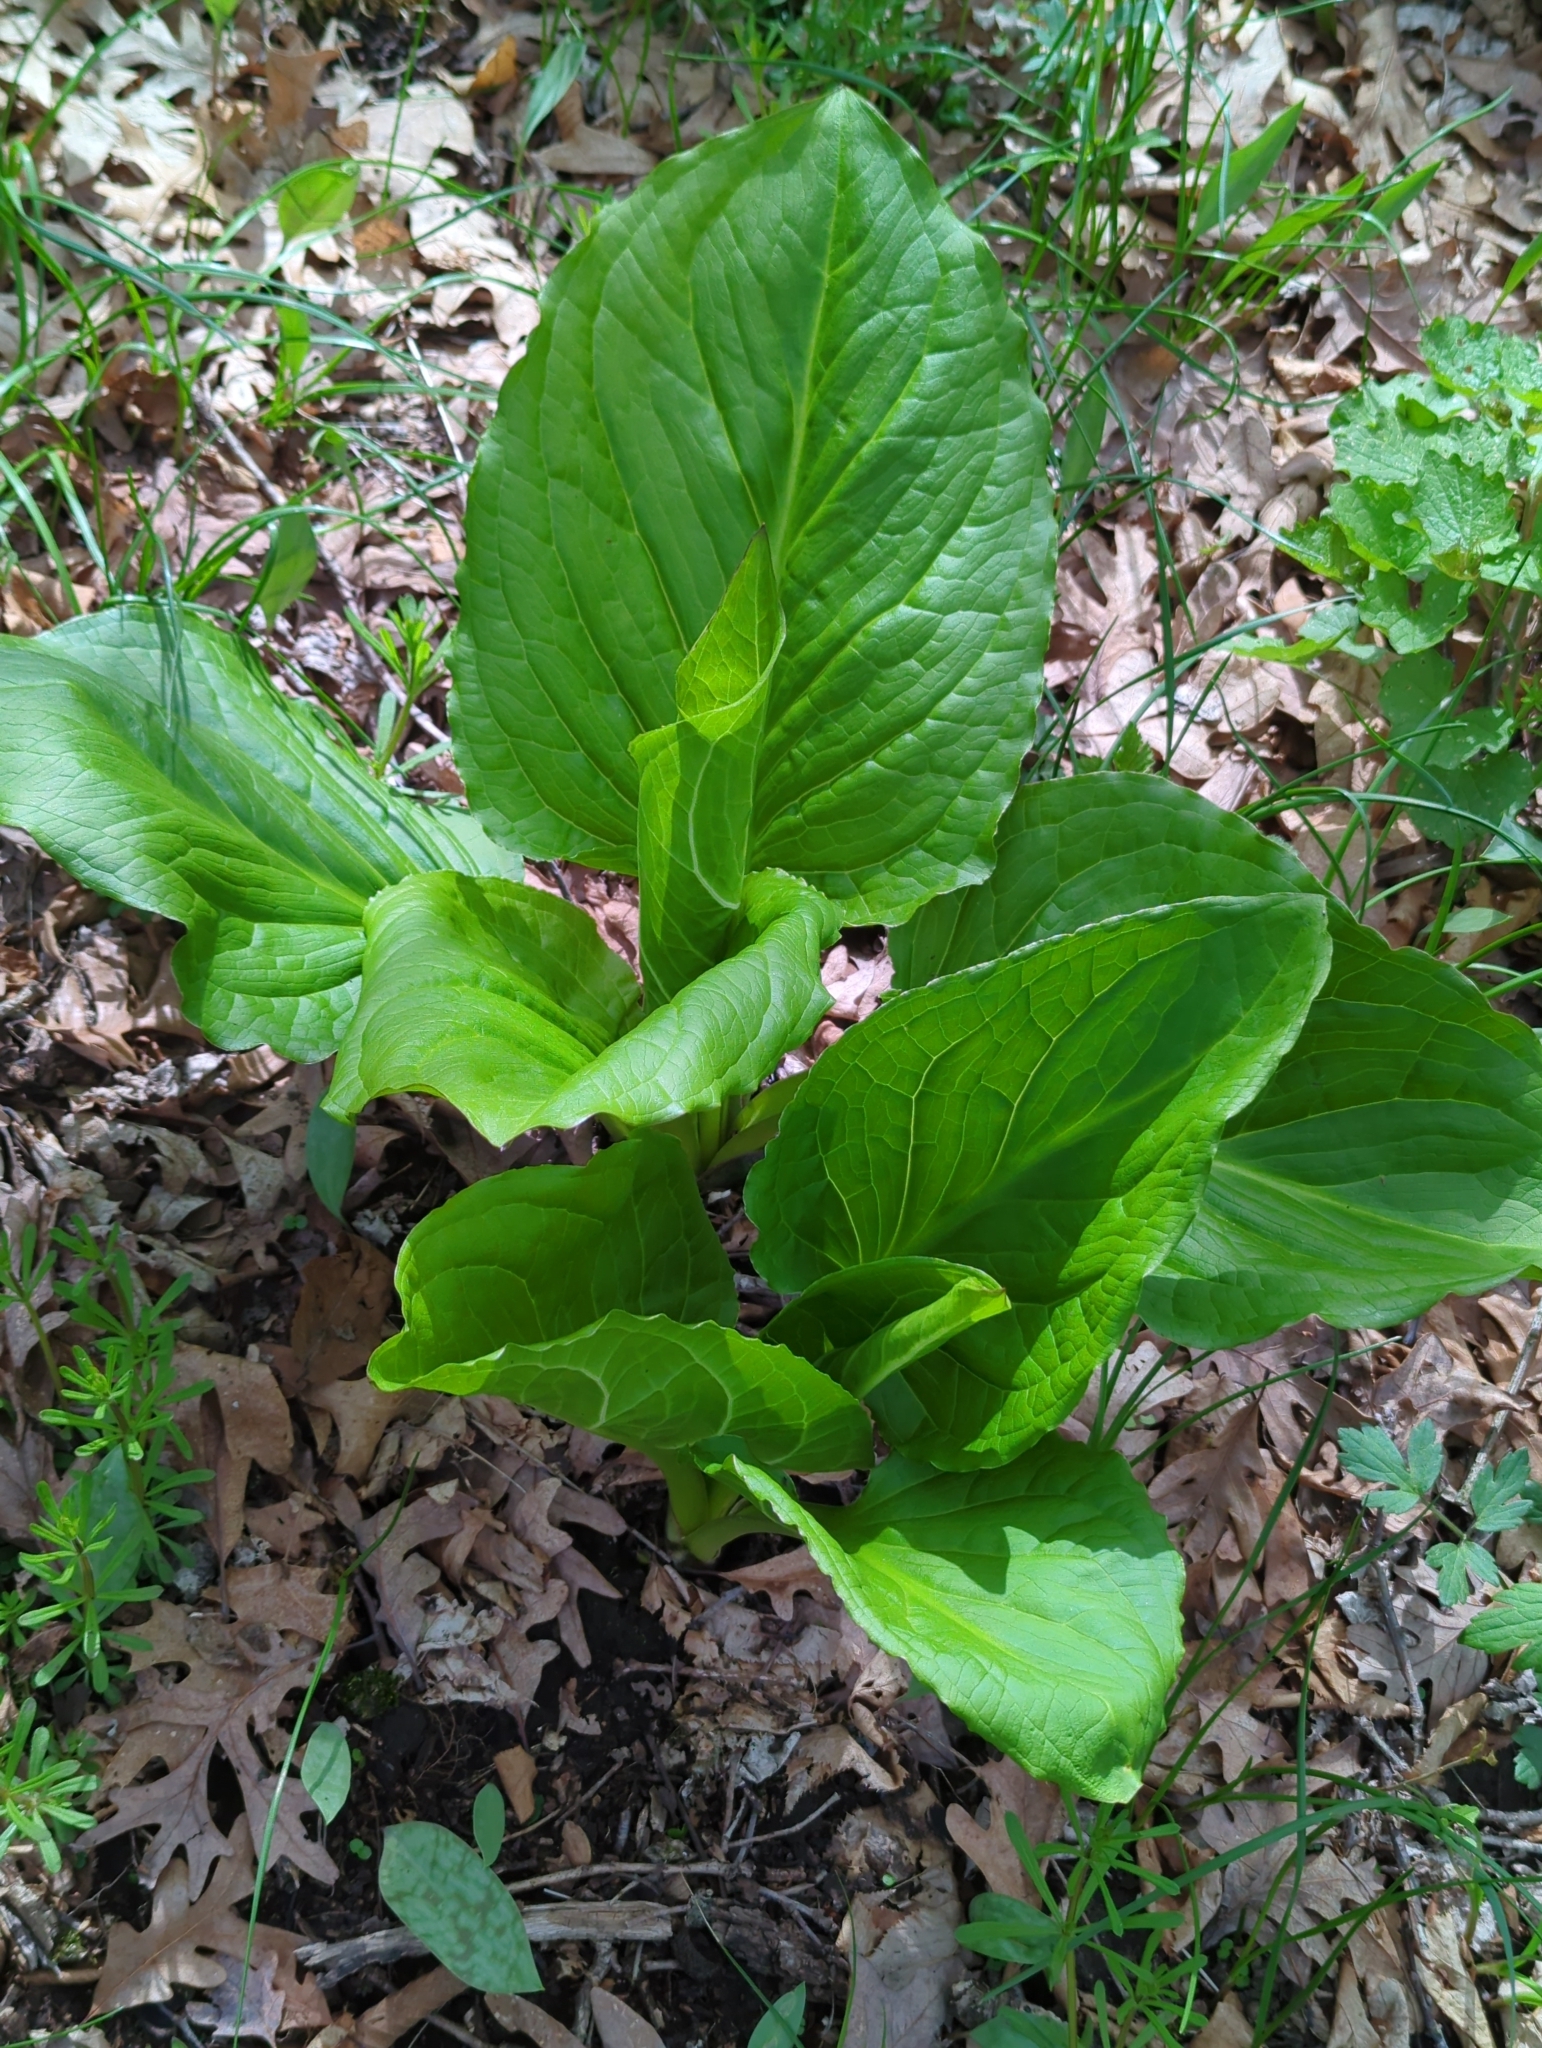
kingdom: Plantae
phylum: Tracheophyta
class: Liliopsida
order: Alismatales
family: Araceae
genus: Symplocarpus
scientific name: Symplocarpus foetidus
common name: Eastern skunk cabbage
